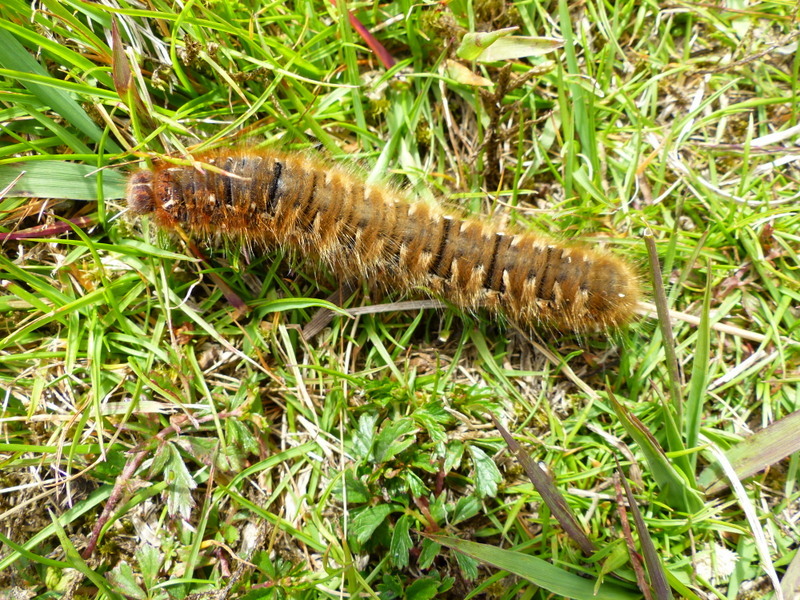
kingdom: Animalia
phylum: Arthropoda
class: Insecta
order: Lepidoptera
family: Lasiocampidae
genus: Lasiocampa
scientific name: Lasiocampa quercus
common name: Oak eggar
